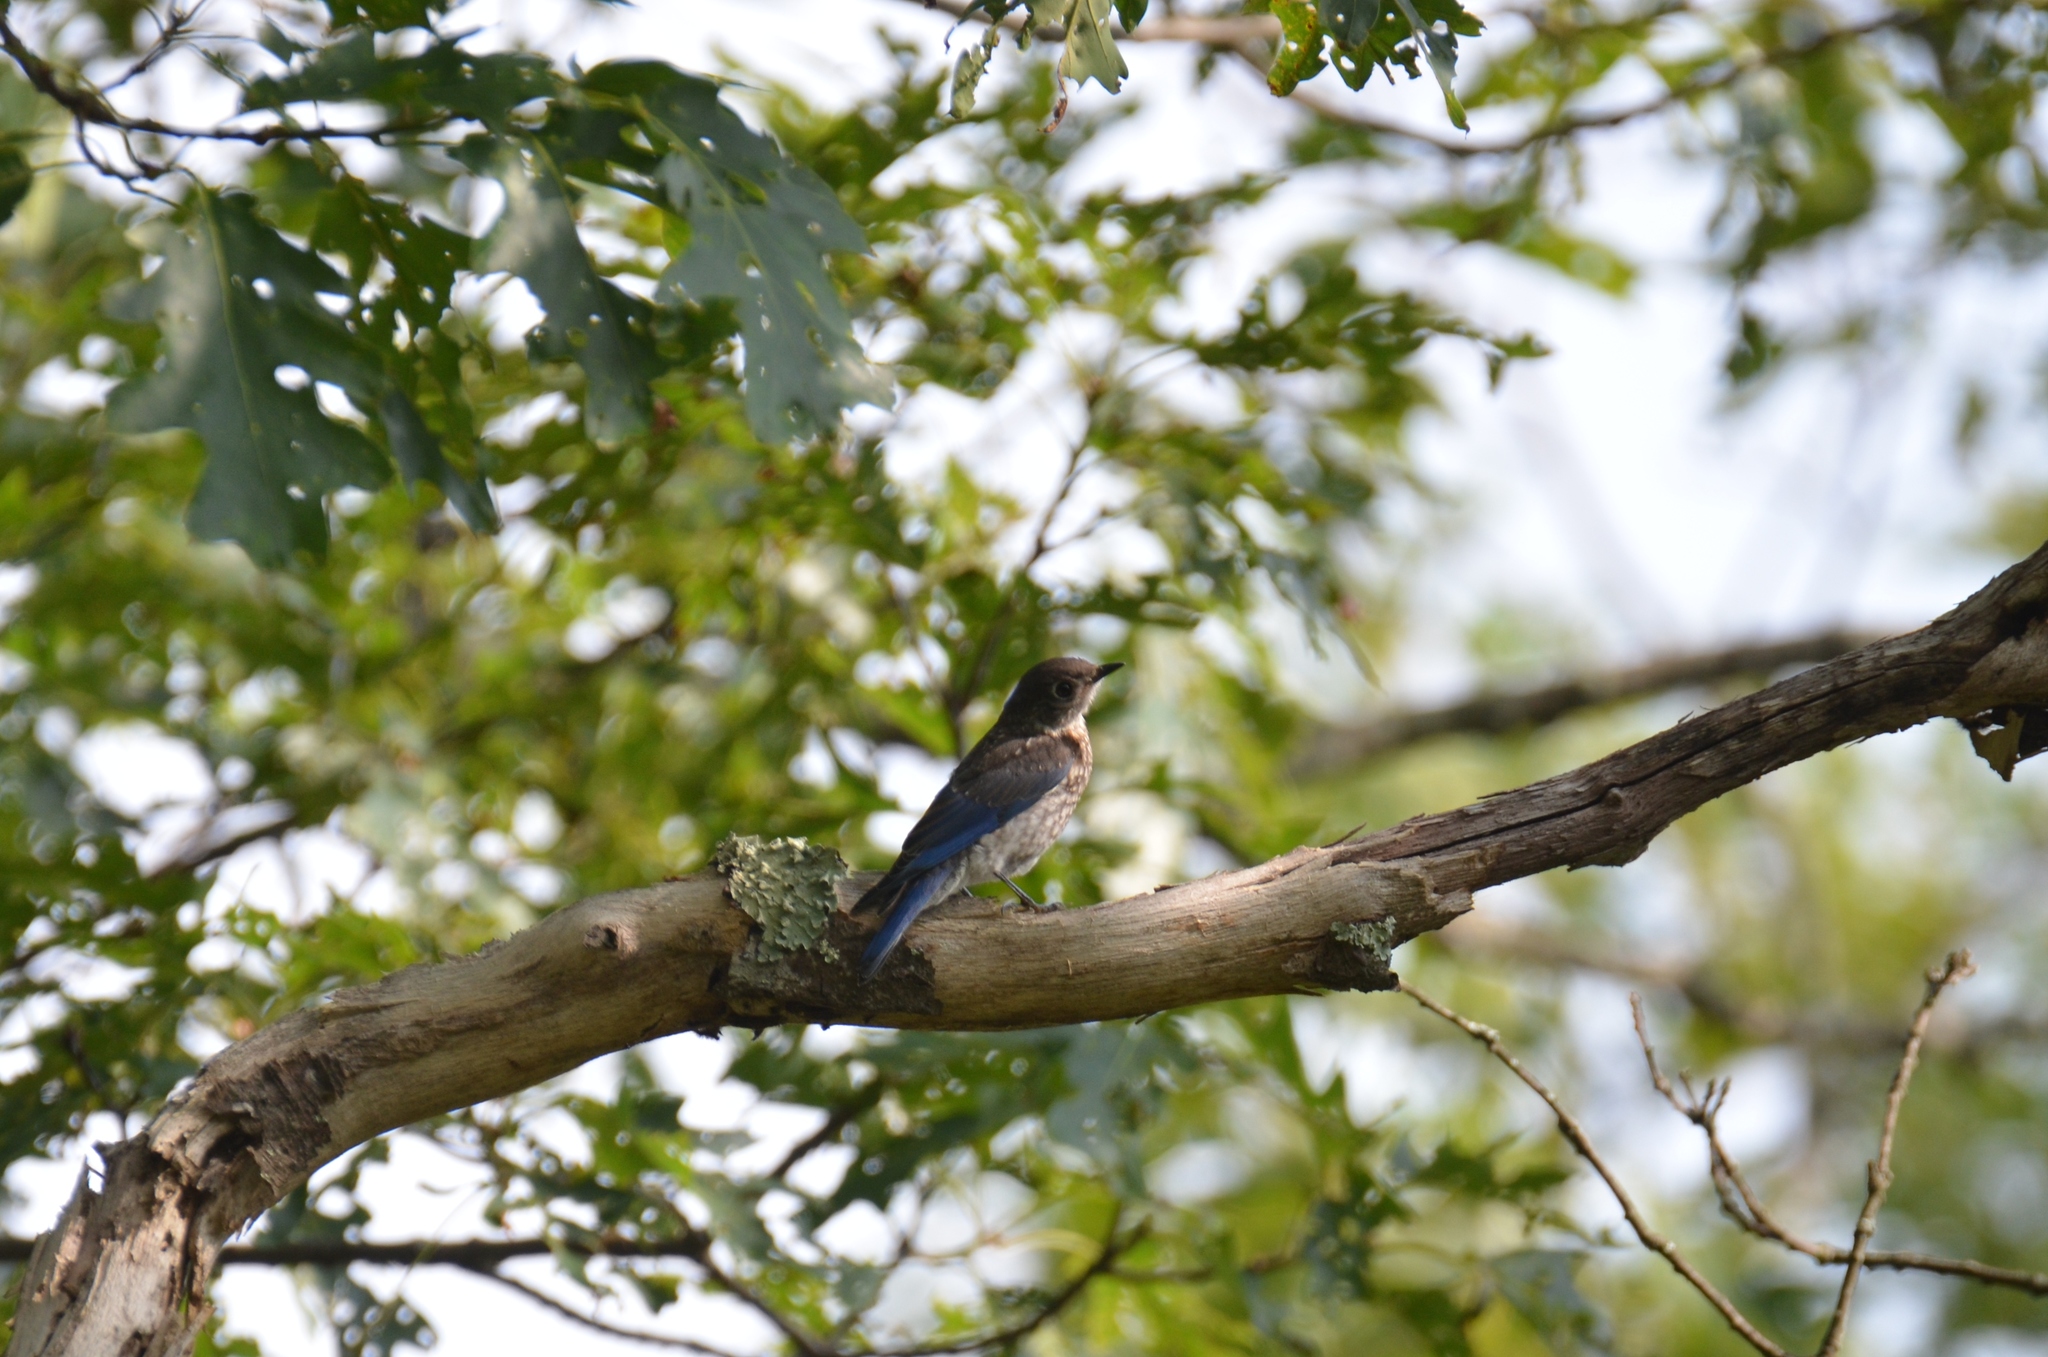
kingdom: Animalia
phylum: Chordata
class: Aves
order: Passeriformes
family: Turdidae
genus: Sialia
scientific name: Sialia sialis
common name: Eastern bluebird
